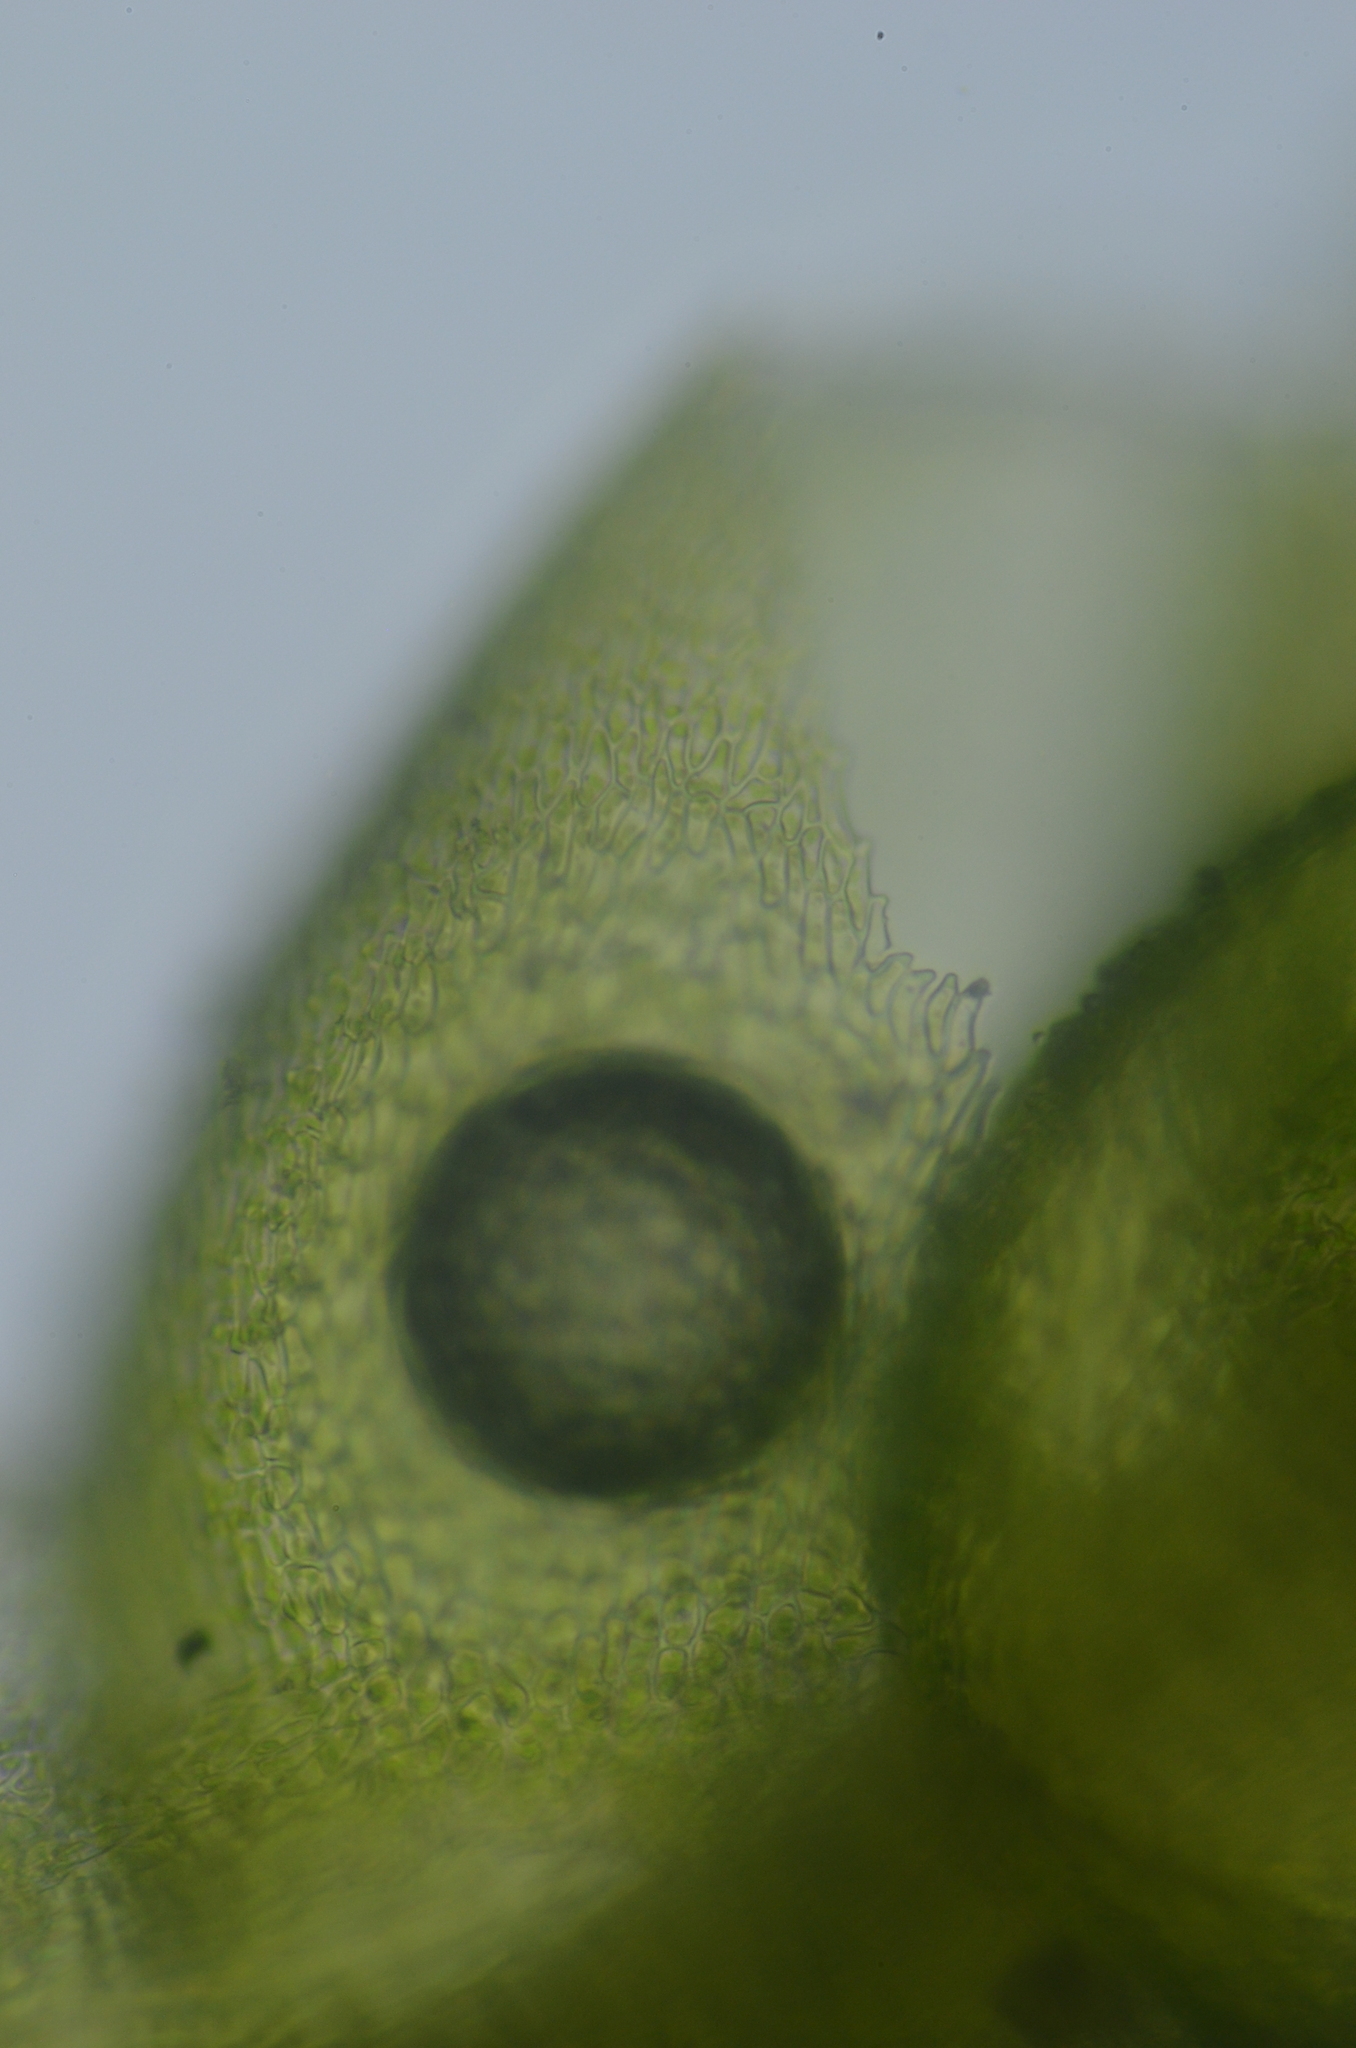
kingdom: Plantae
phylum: Bryophyta
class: Bryopsida
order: Hypnales
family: Plagiotheciaceae
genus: Myurella
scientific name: Myurella julacea
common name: Small mousetail moss
